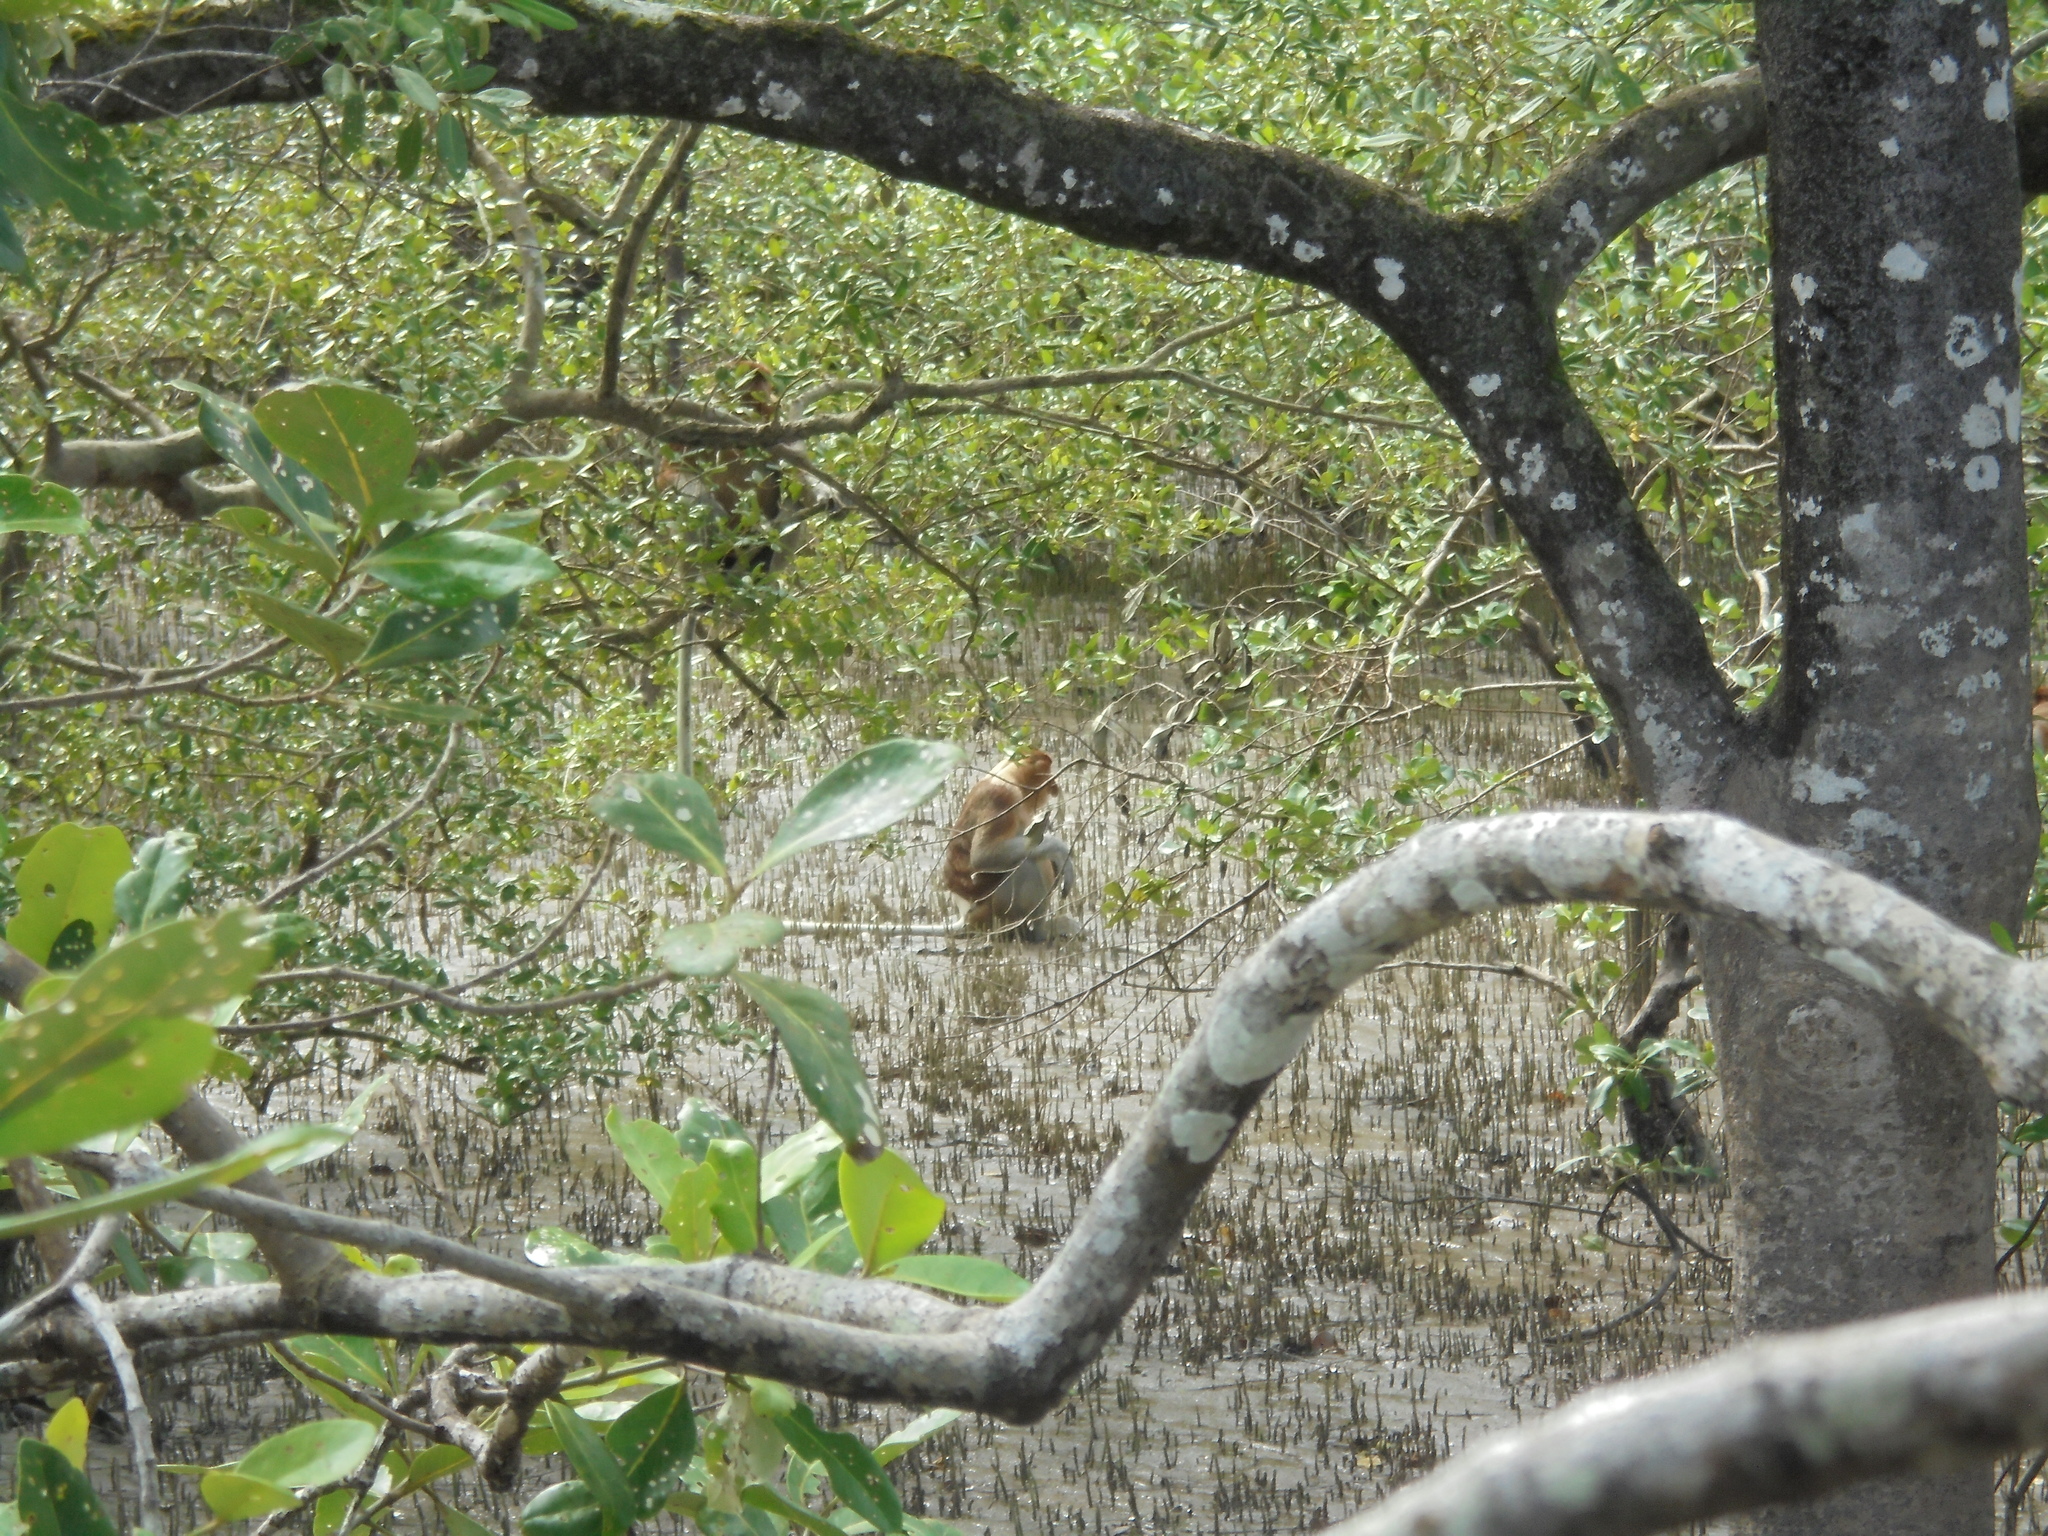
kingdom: Animalia
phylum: Chordata
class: Mammalia
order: Primates
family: Cercopithecidae
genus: Nasalis
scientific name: Nasalis larvatus
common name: Proboscis monkey
